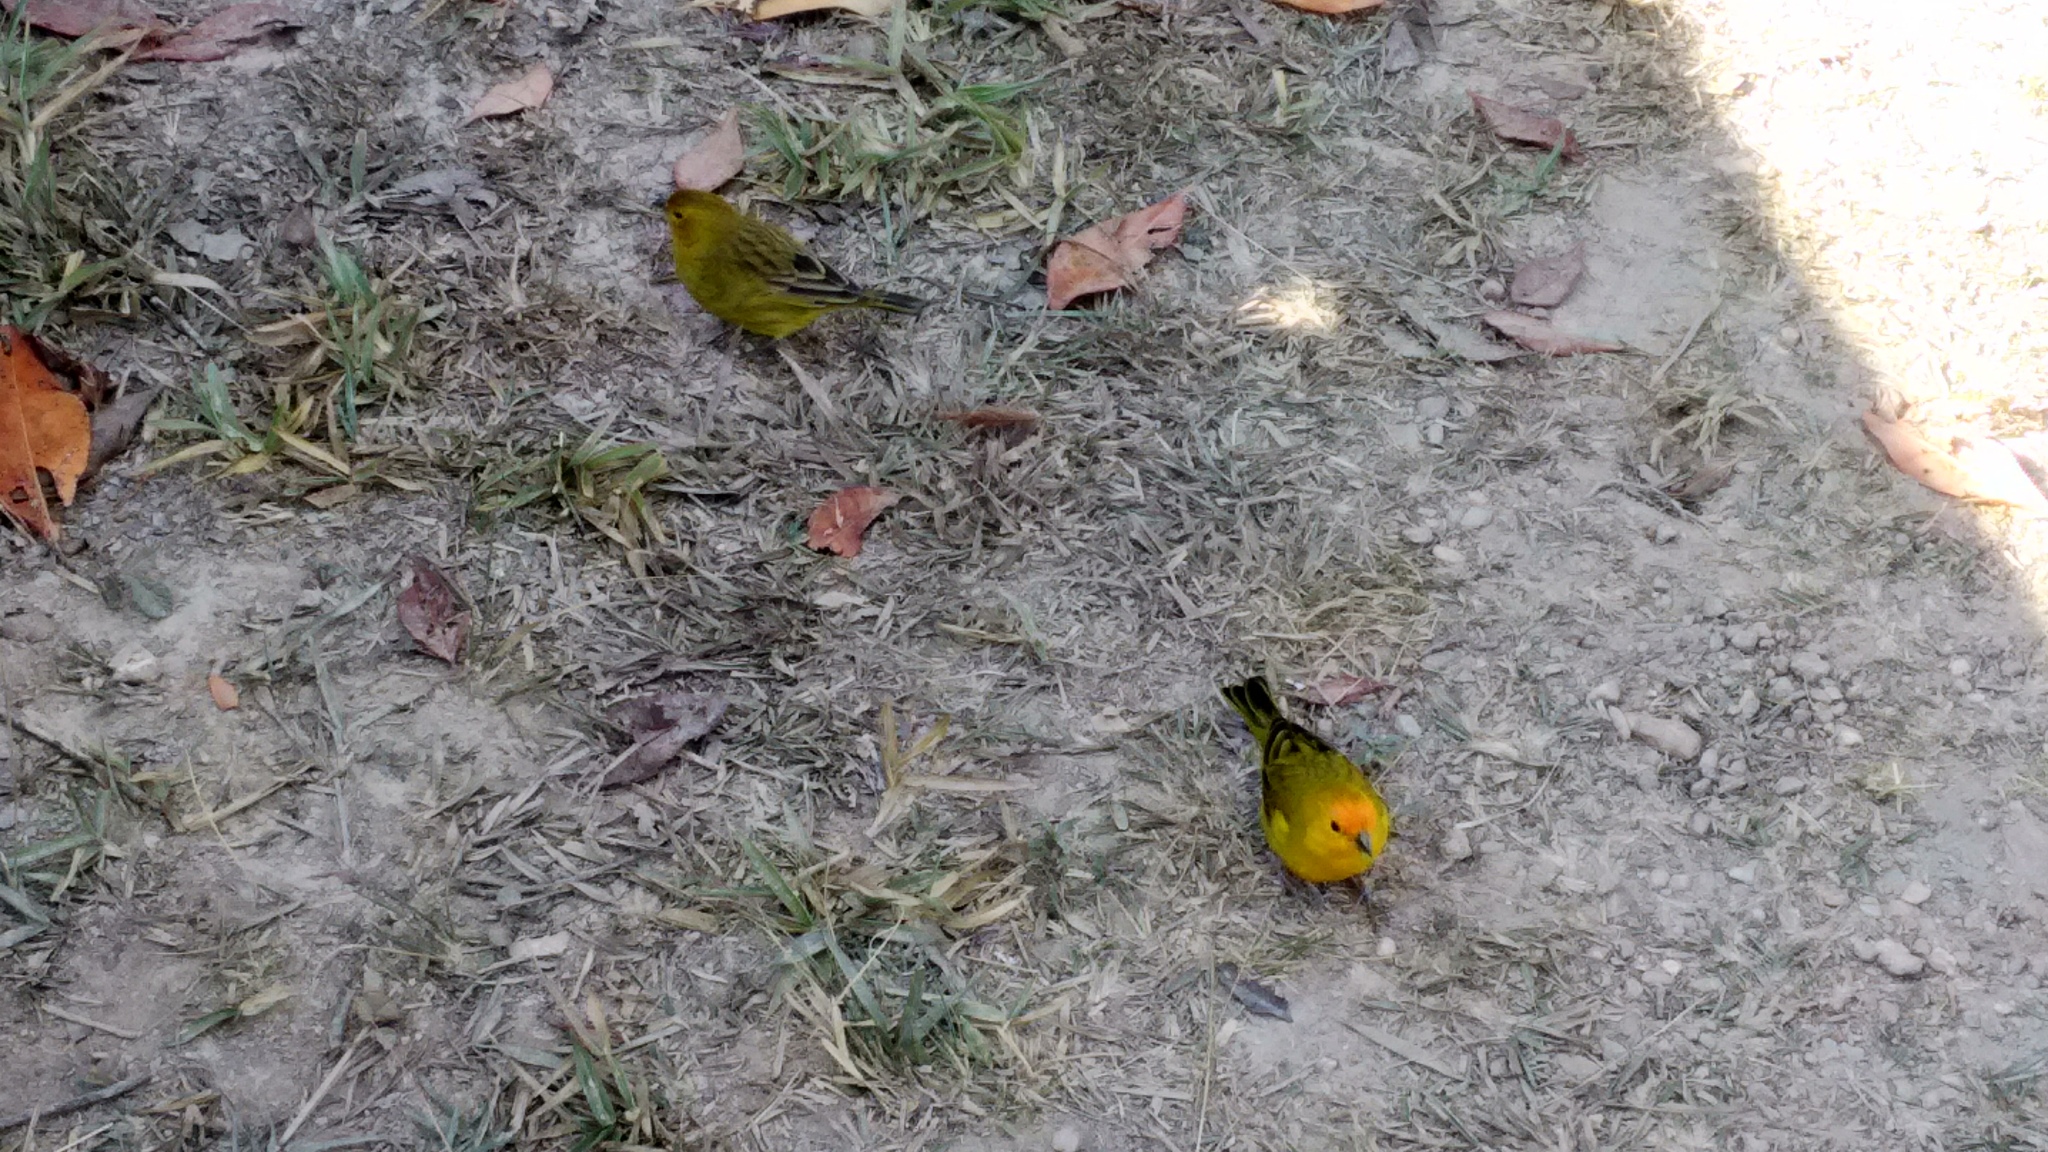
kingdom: Animalia
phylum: Chordata
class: Aves
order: Passeriformes
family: Thraupidae
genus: Sicalis
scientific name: Sicalis flaveola
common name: Saffron finch
